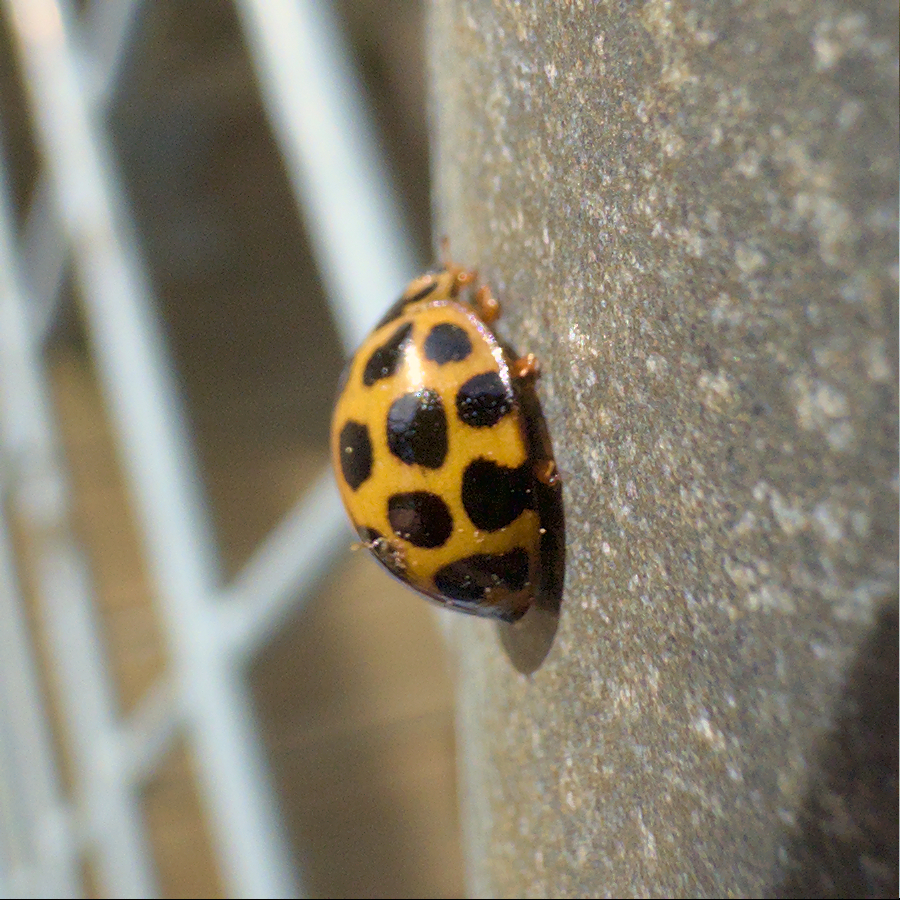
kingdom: Animalia
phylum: Arthropoda
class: Insecta
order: Coleoptera
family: Coccinellidae
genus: Harmonia
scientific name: Harmonia conformis
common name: Common spotted ladybird beetle
